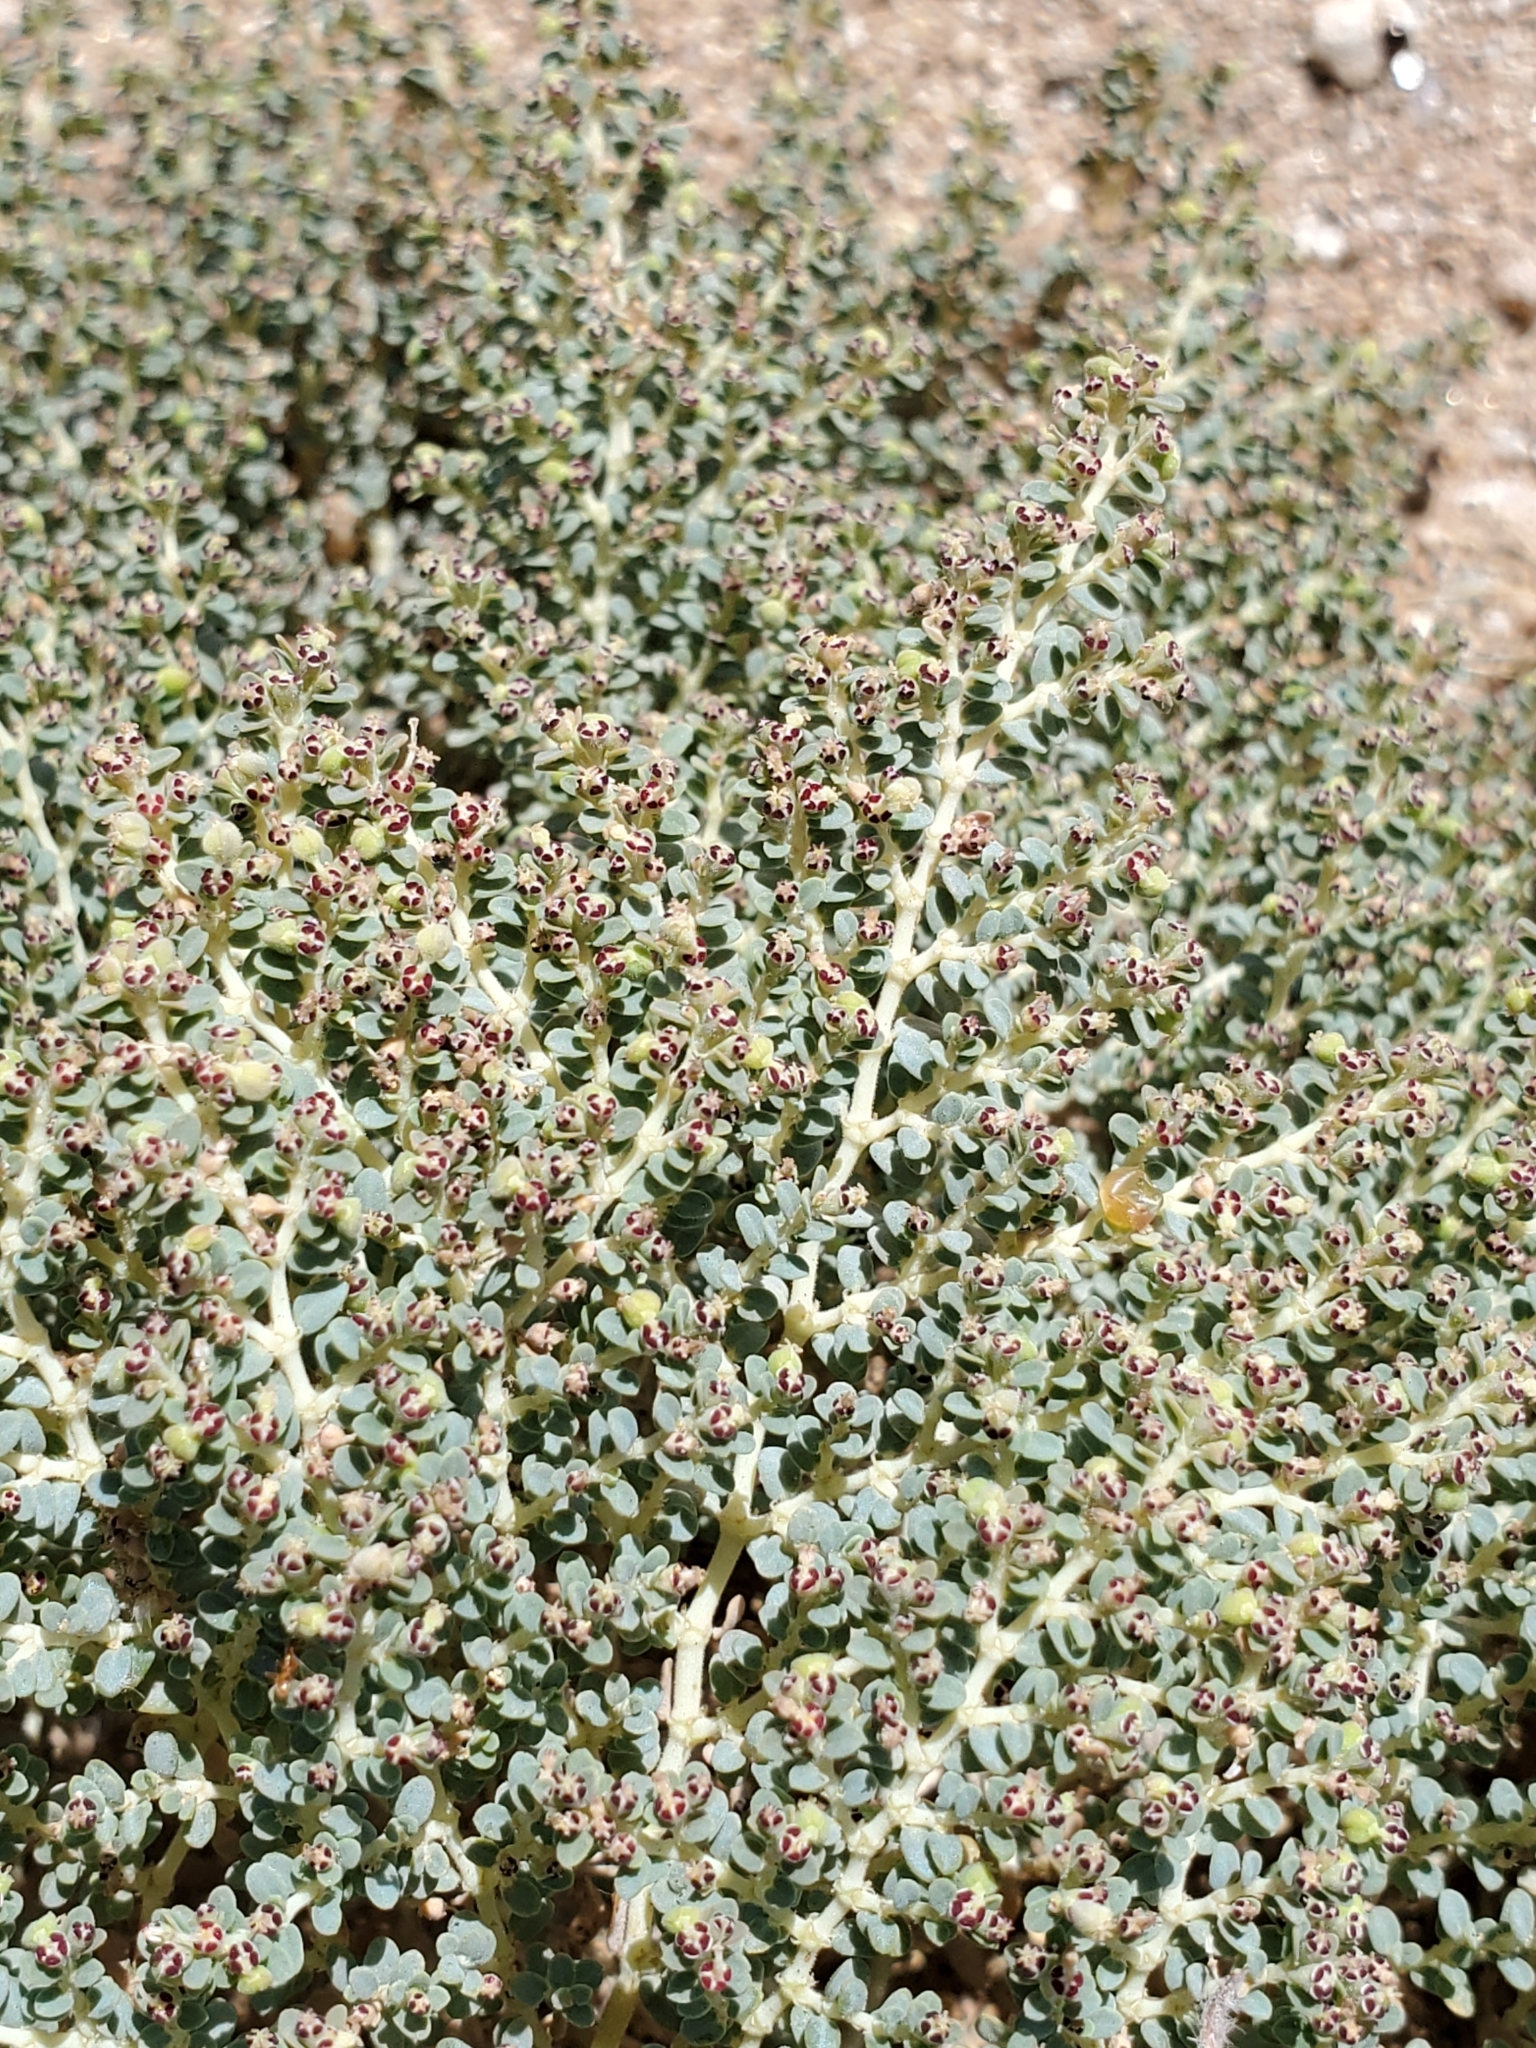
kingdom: Plantae
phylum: Tracheophyta
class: Magnoliopsida
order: Malpighiales
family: Euphorbiaceae
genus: Euphorbia
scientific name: Euphorbia polycarpa
